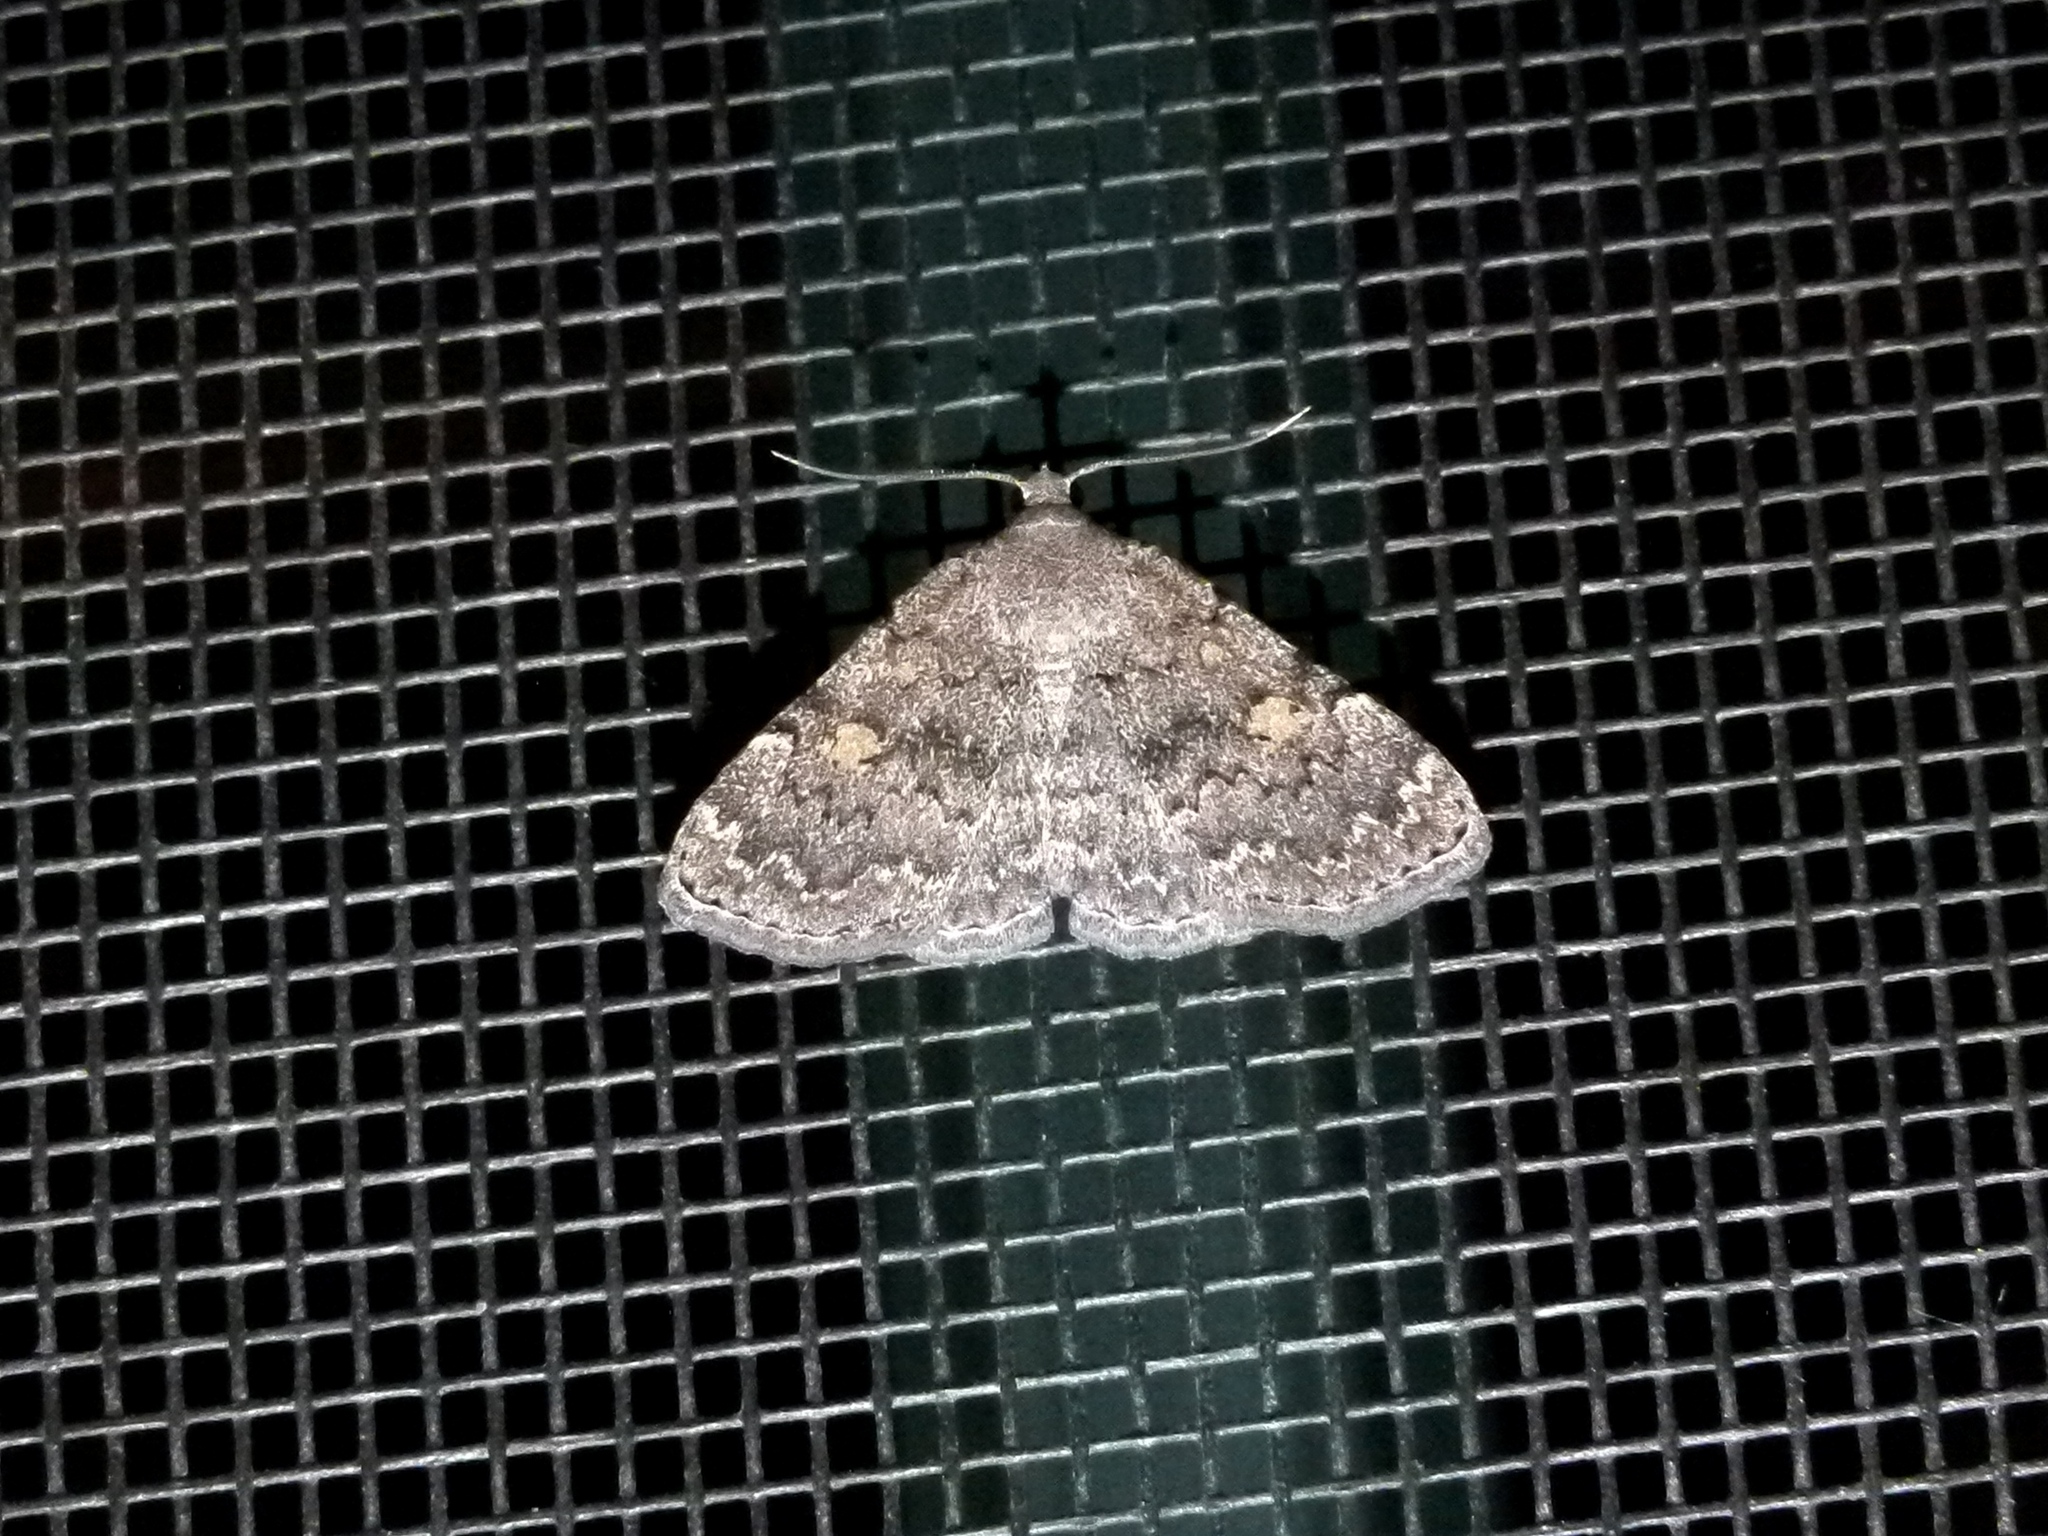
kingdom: Animalia
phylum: Arthropoda
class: Insecta
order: Lepidoptera
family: Erebidae
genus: Idia
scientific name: Idia aemula
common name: Common idia moth
